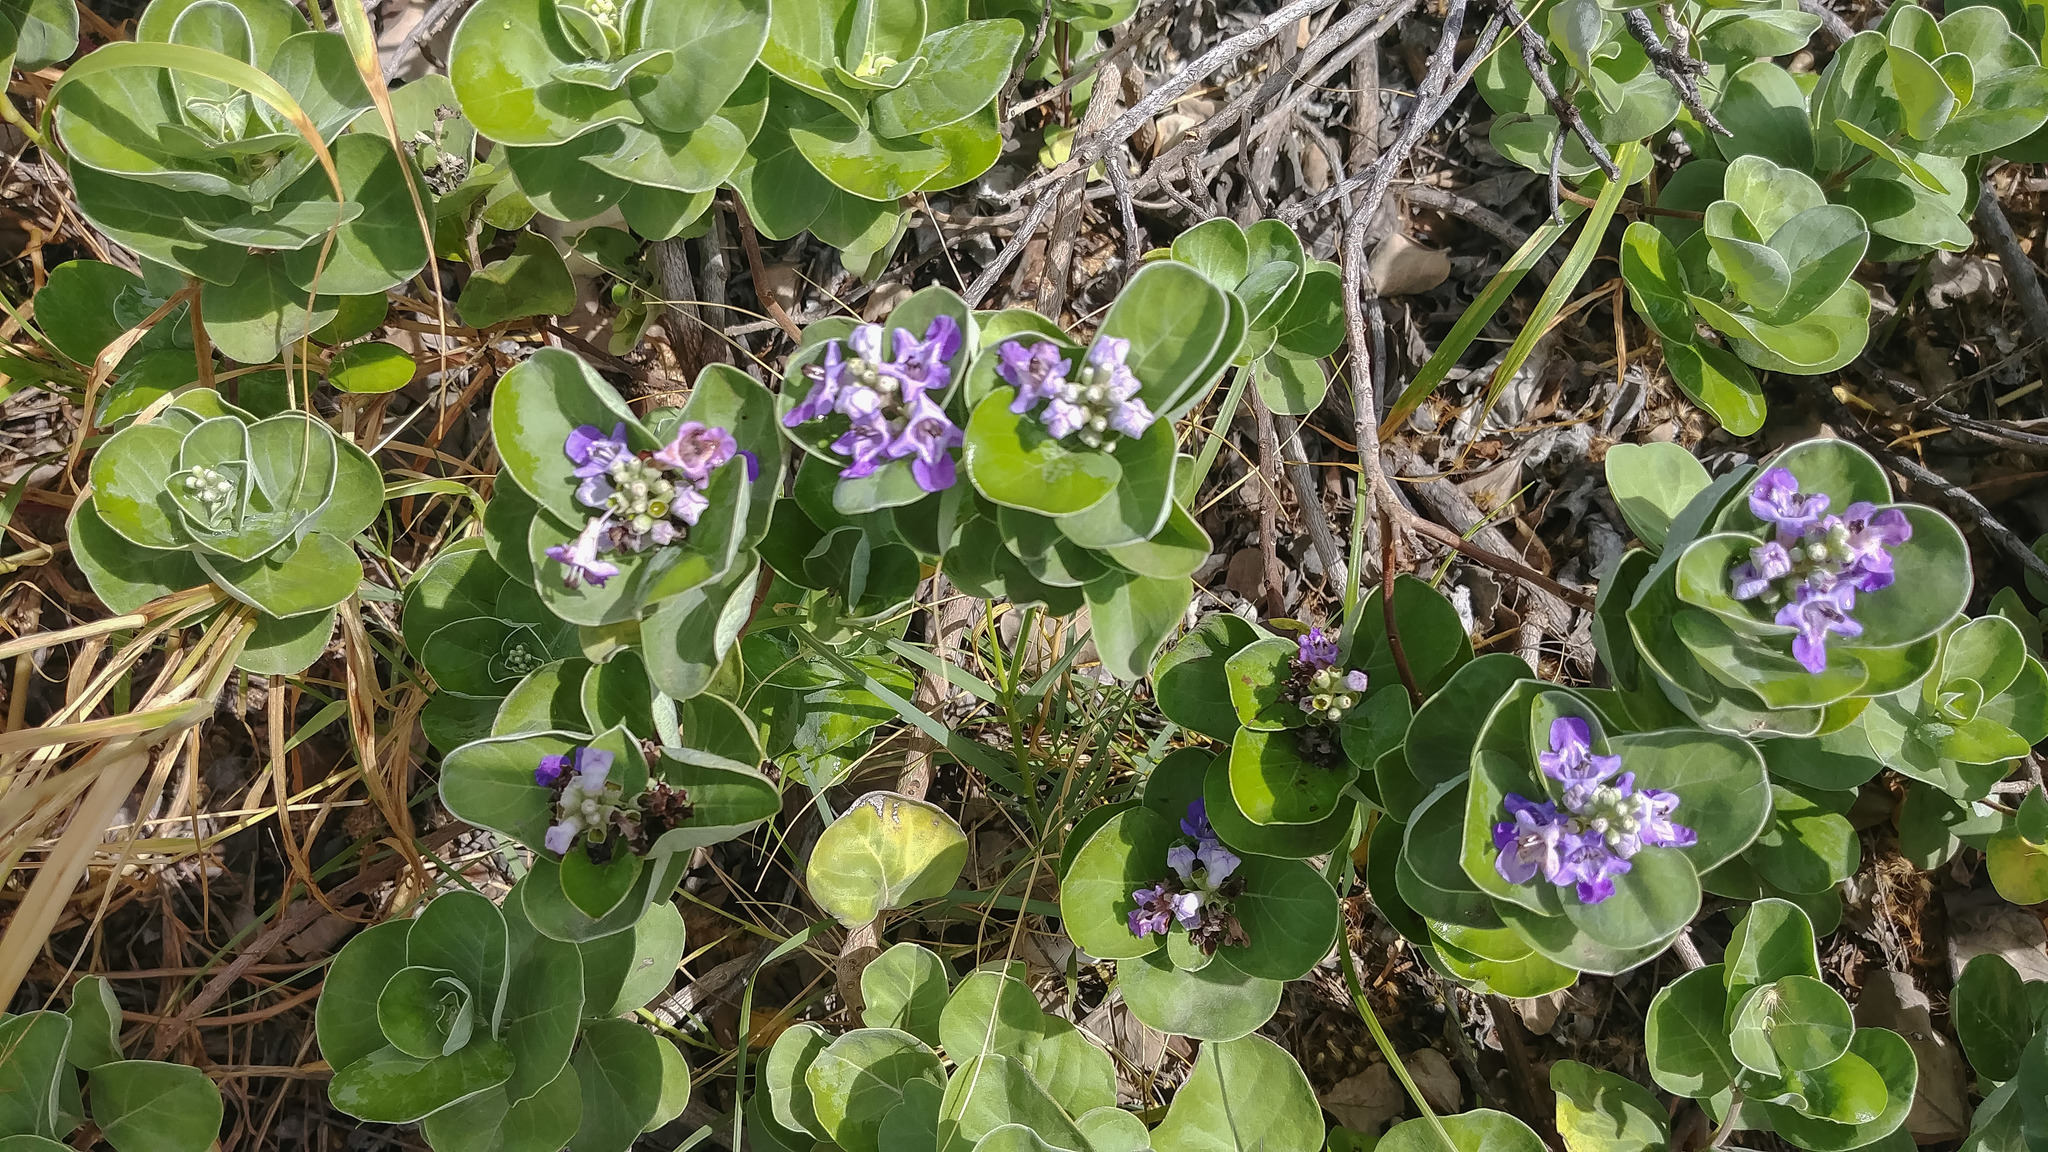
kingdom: Plantae
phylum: Tracheophyta
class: Magnoliopsida
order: Lamiales
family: Lamiaceae
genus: Vitex
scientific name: Vitex rotundifolia
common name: Beach vitex
